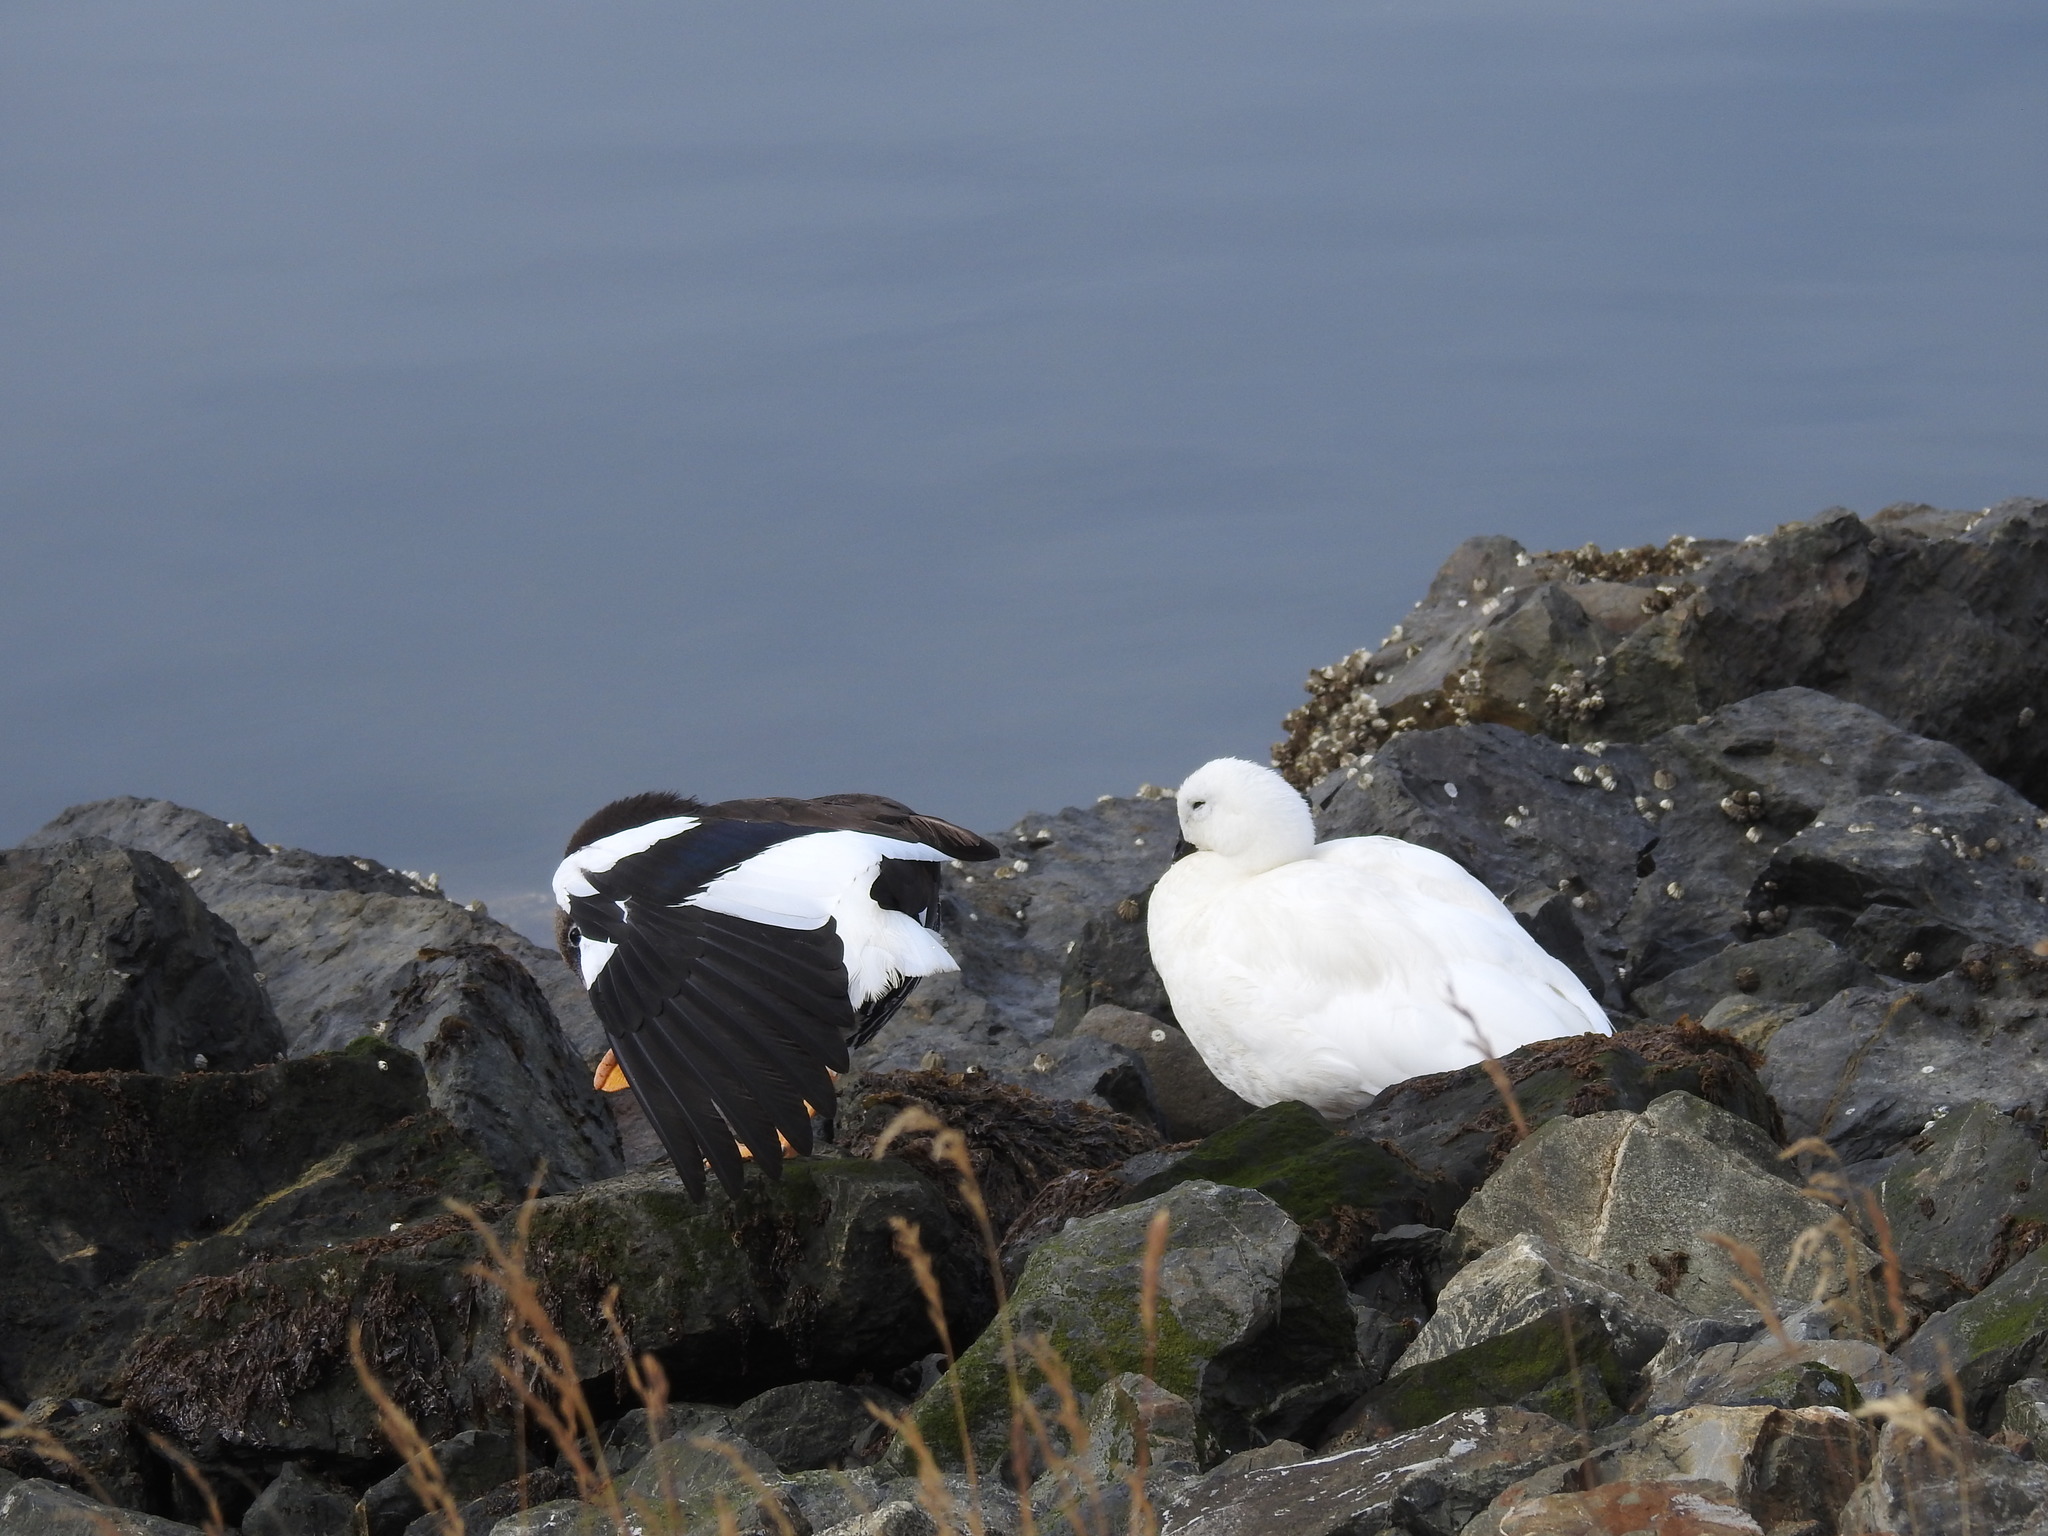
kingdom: Animalia
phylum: Chordata
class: Aves
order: Anseriformes
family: Anatidae
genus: Chloephaga
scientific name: Chloephaga hybrida
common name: Kelp goose
